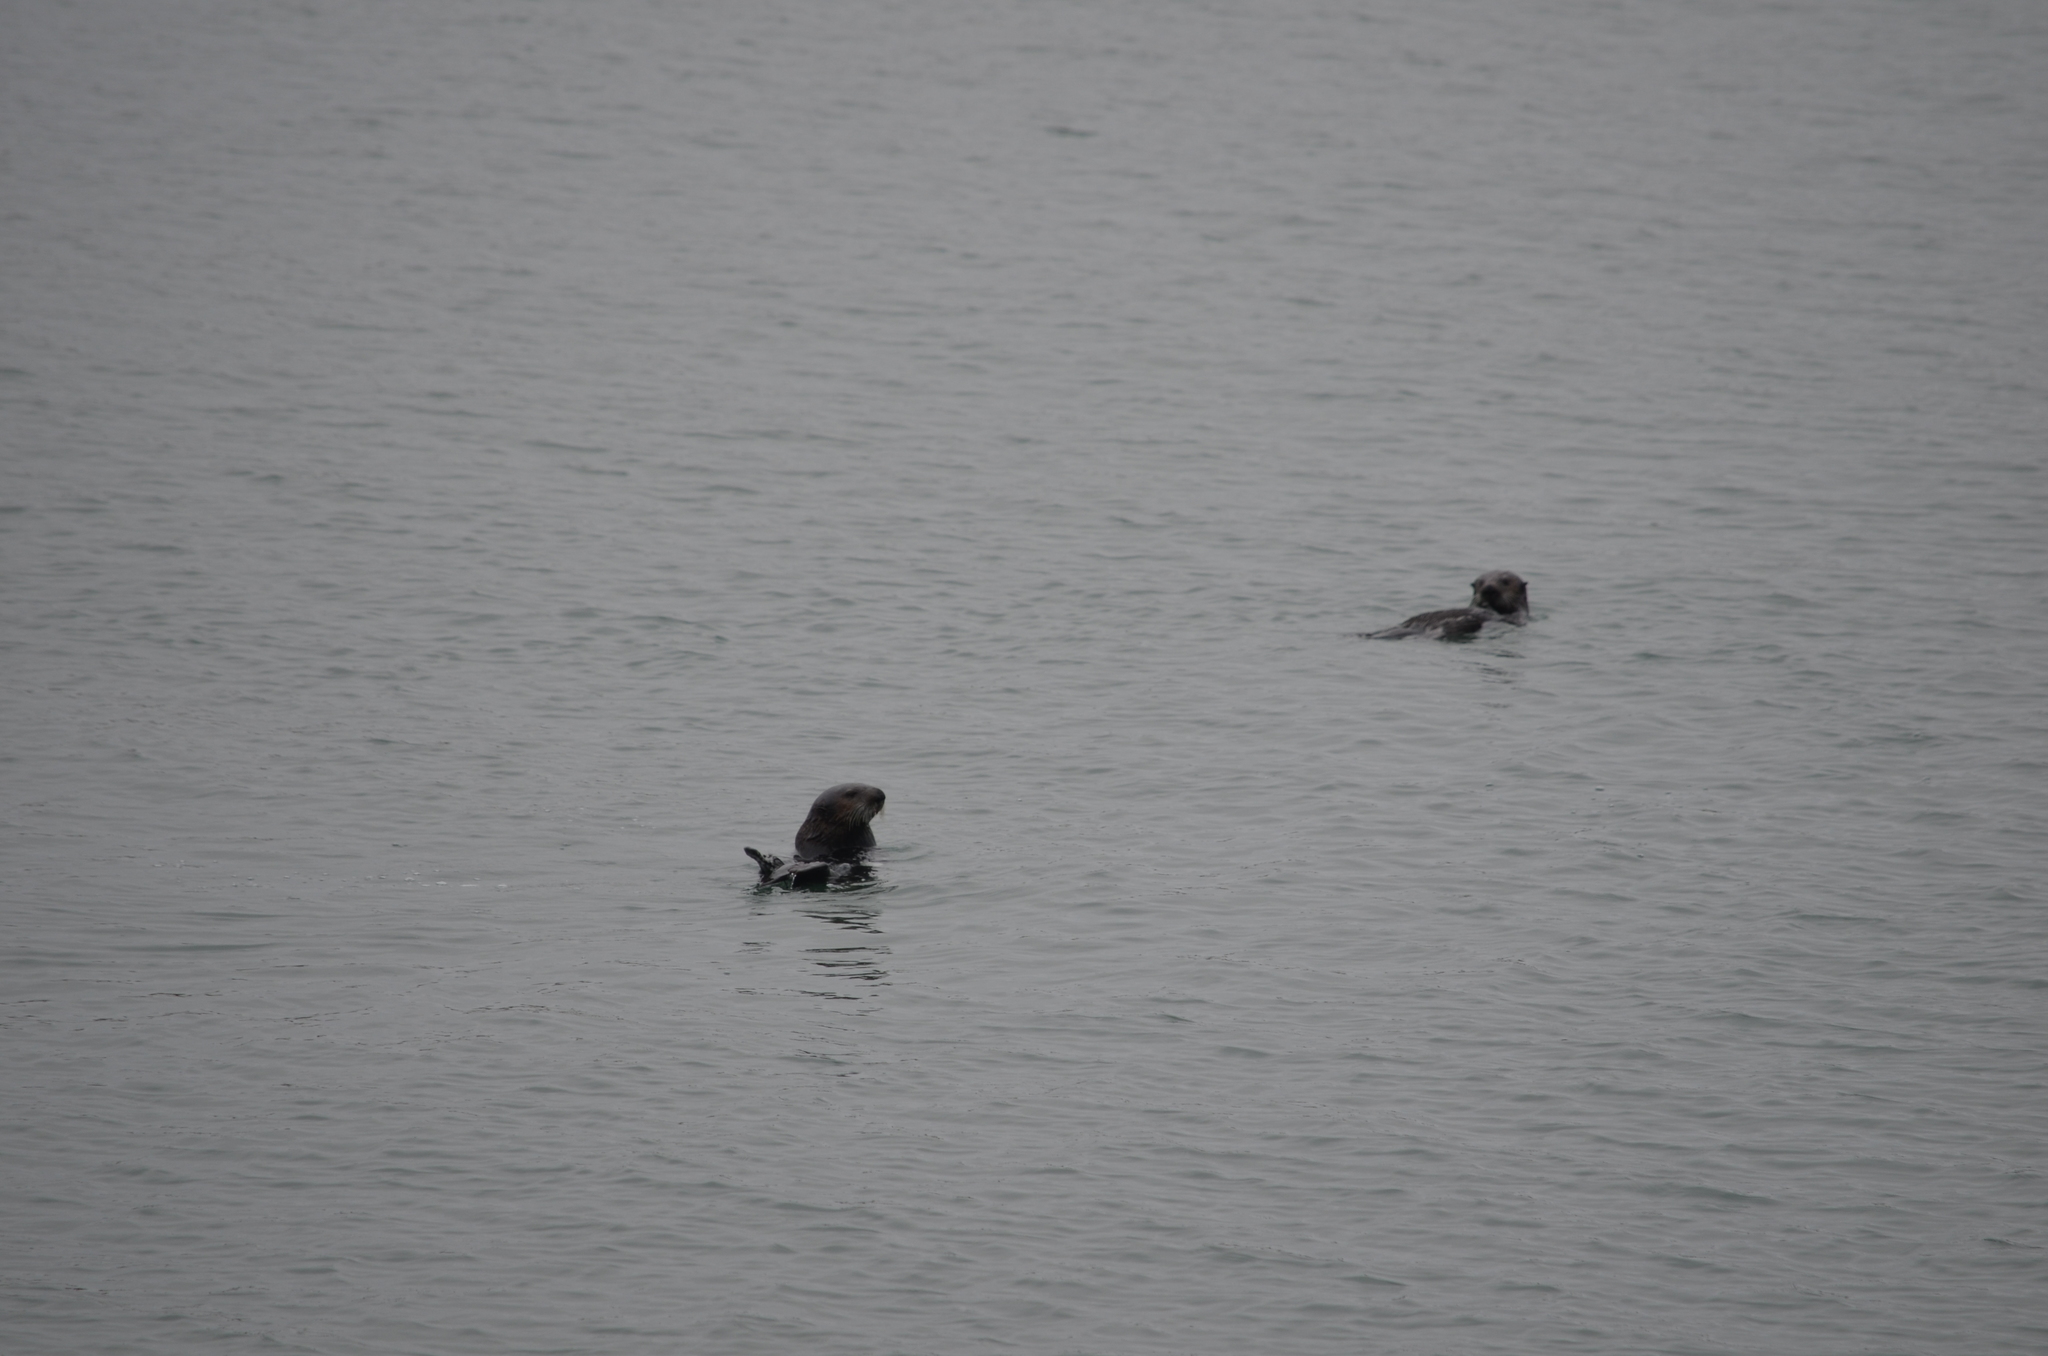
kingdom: Animalia
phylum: Chordata
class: Mammalia
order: Carnivora
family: Mustelidae
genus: Enhydra
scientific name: Enhydra lutris
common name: Sea otter
